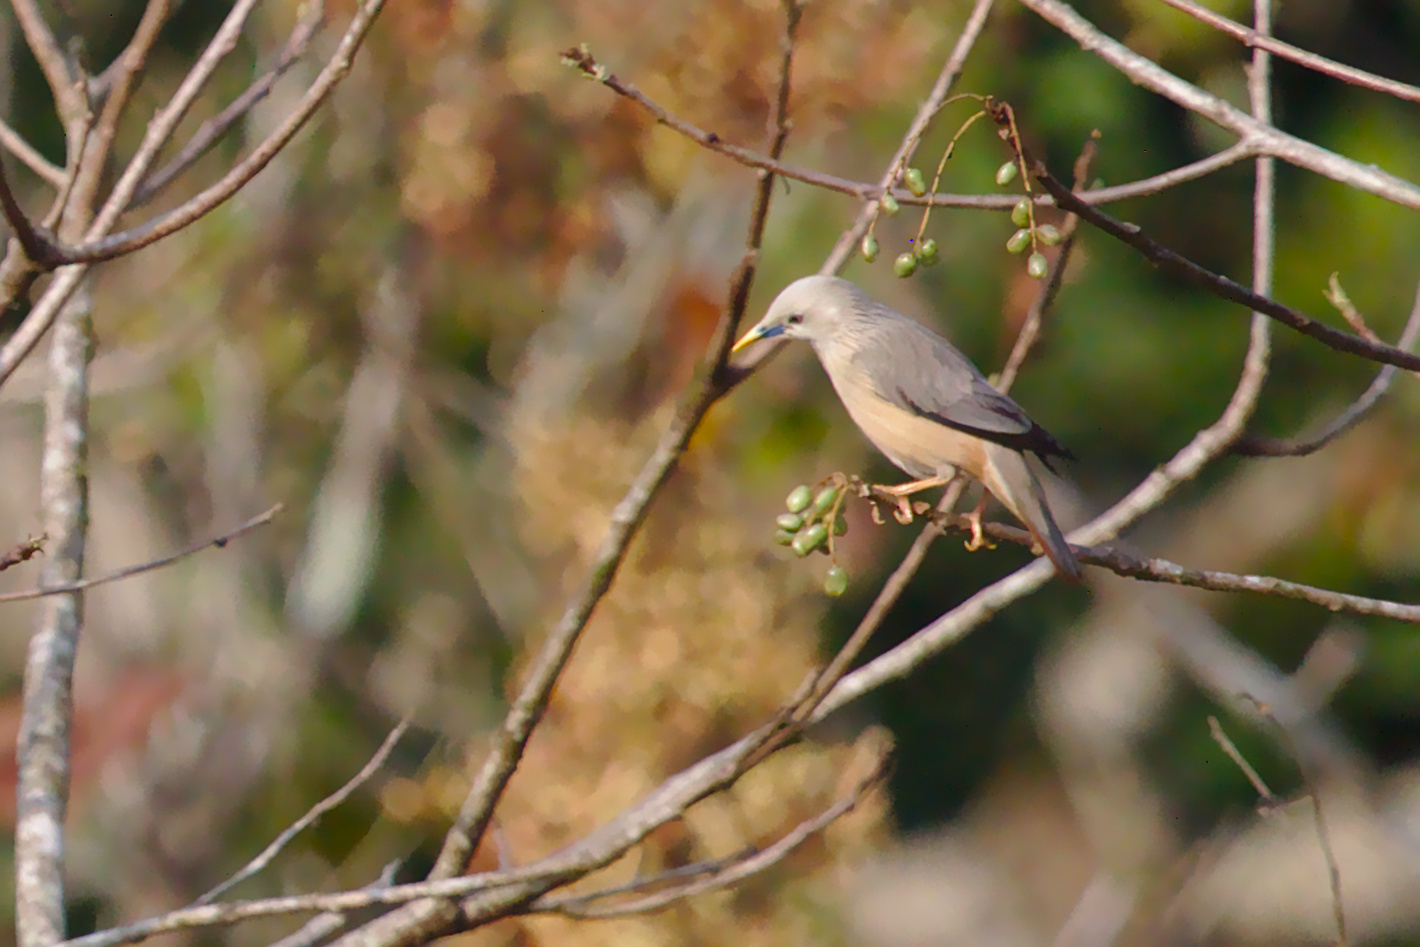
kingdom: Animalia
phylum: Chordata
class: Aves
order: Passeriformes
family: Sturnidae
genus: Sturnia
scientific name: Sturnia pagodarum
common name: Brahminy starling
